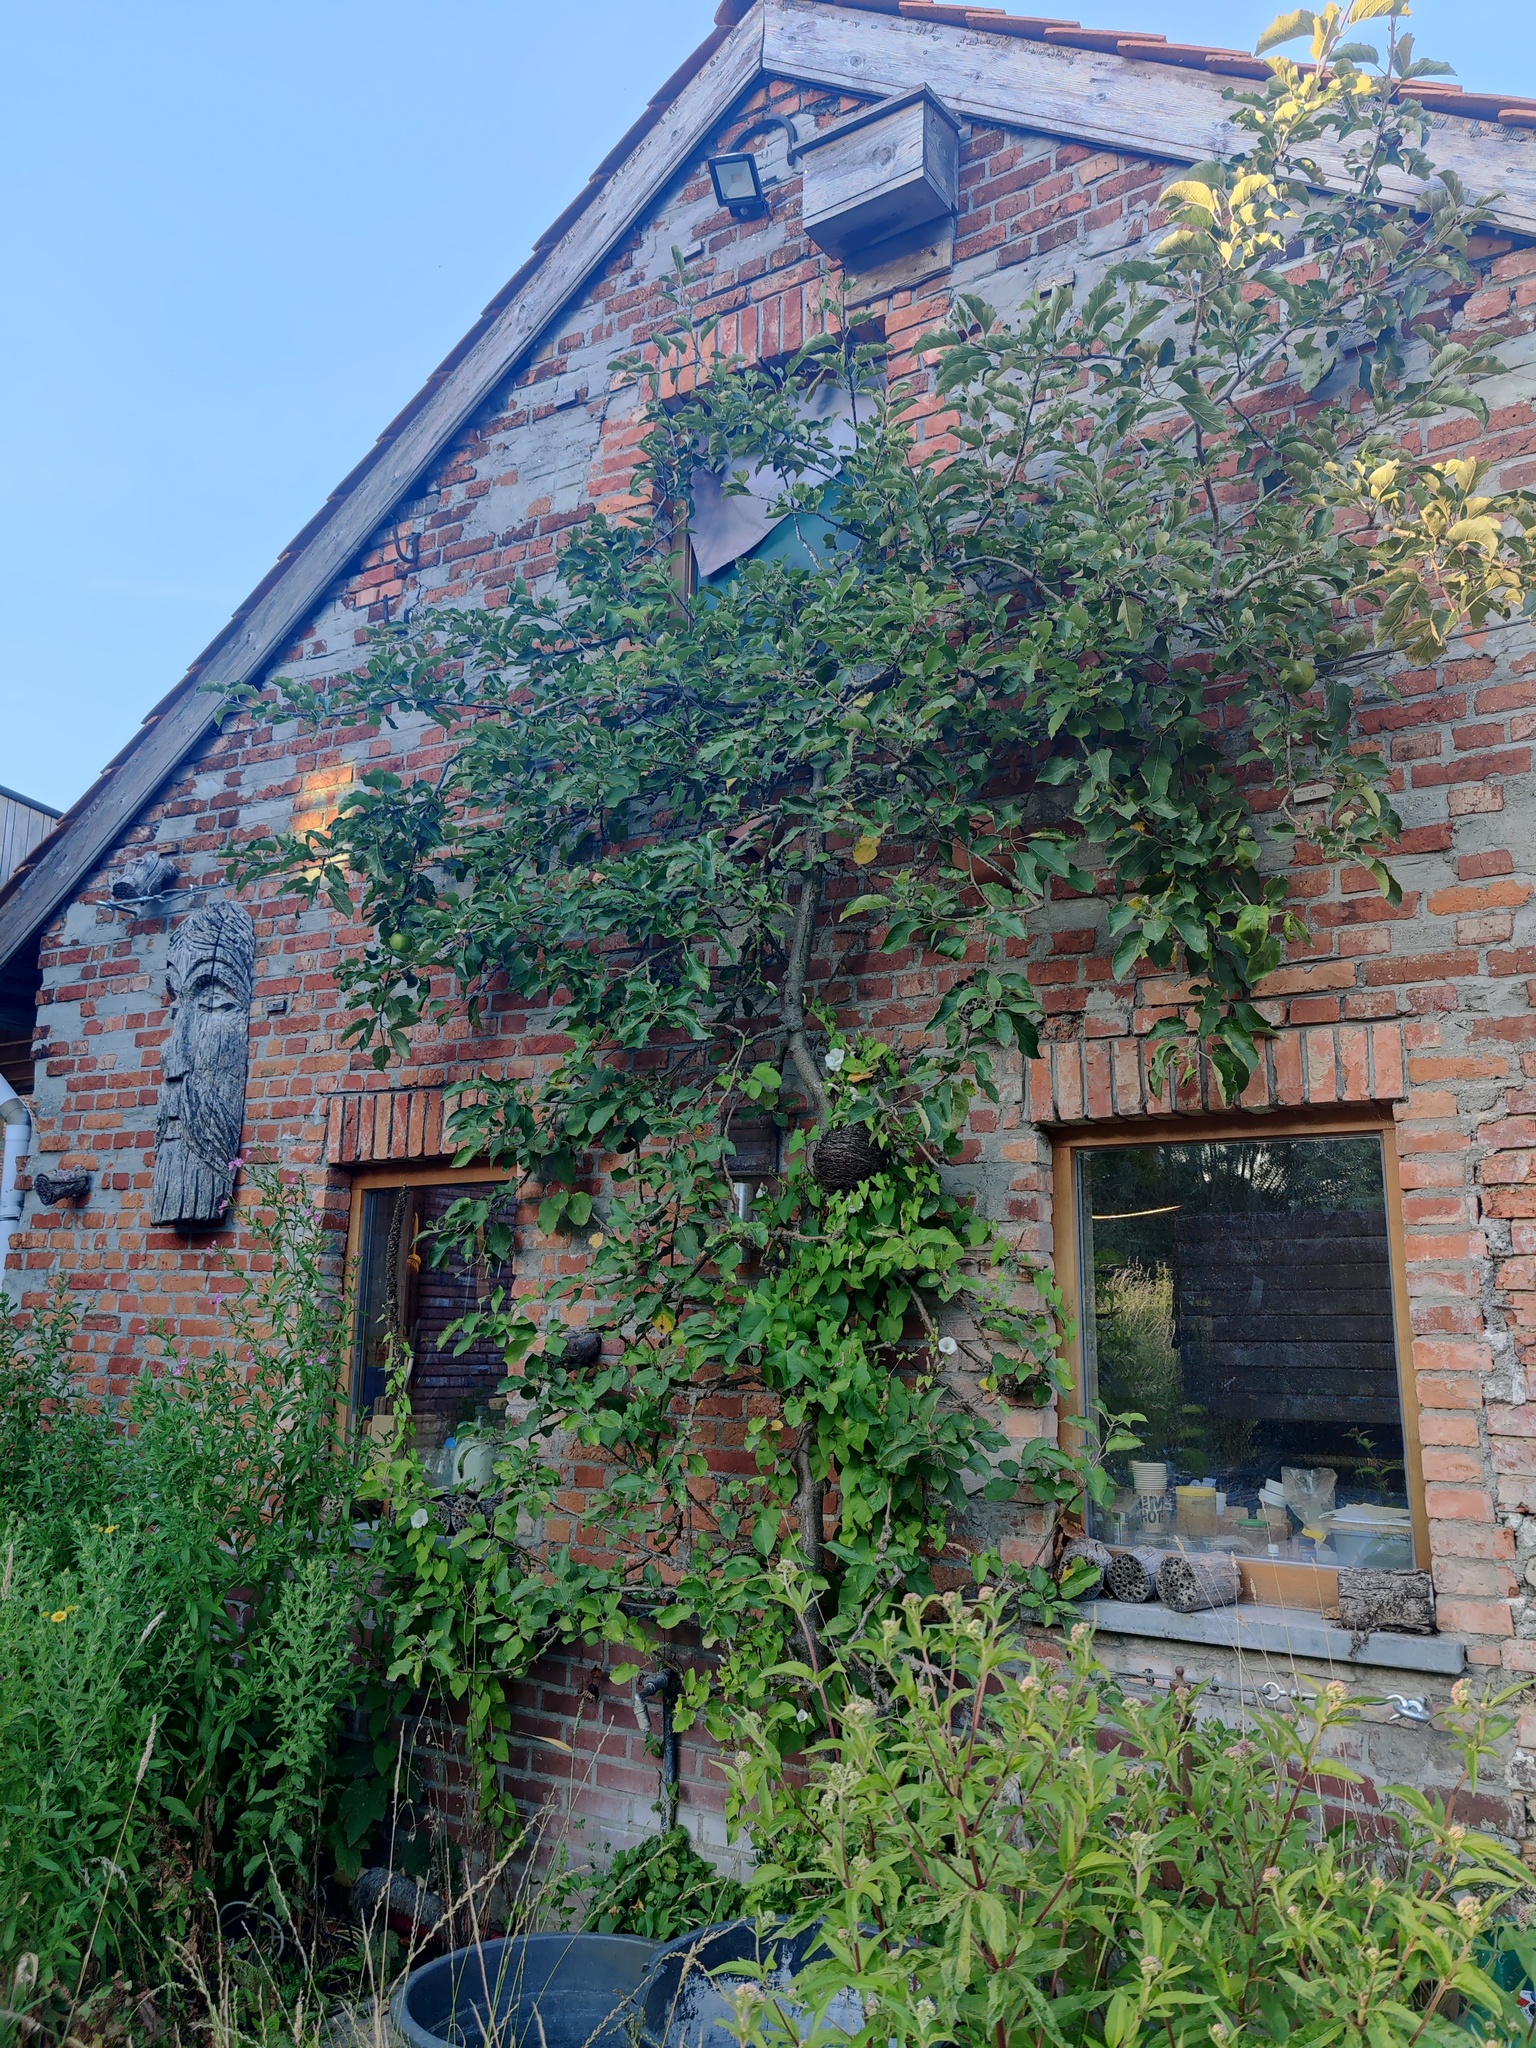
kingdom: Animalia
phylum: Arthropoda
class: Insecta
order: Hymenoptera
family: Vespidae
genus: Vespa
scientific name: Vespa velutina
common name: Asian hornet
